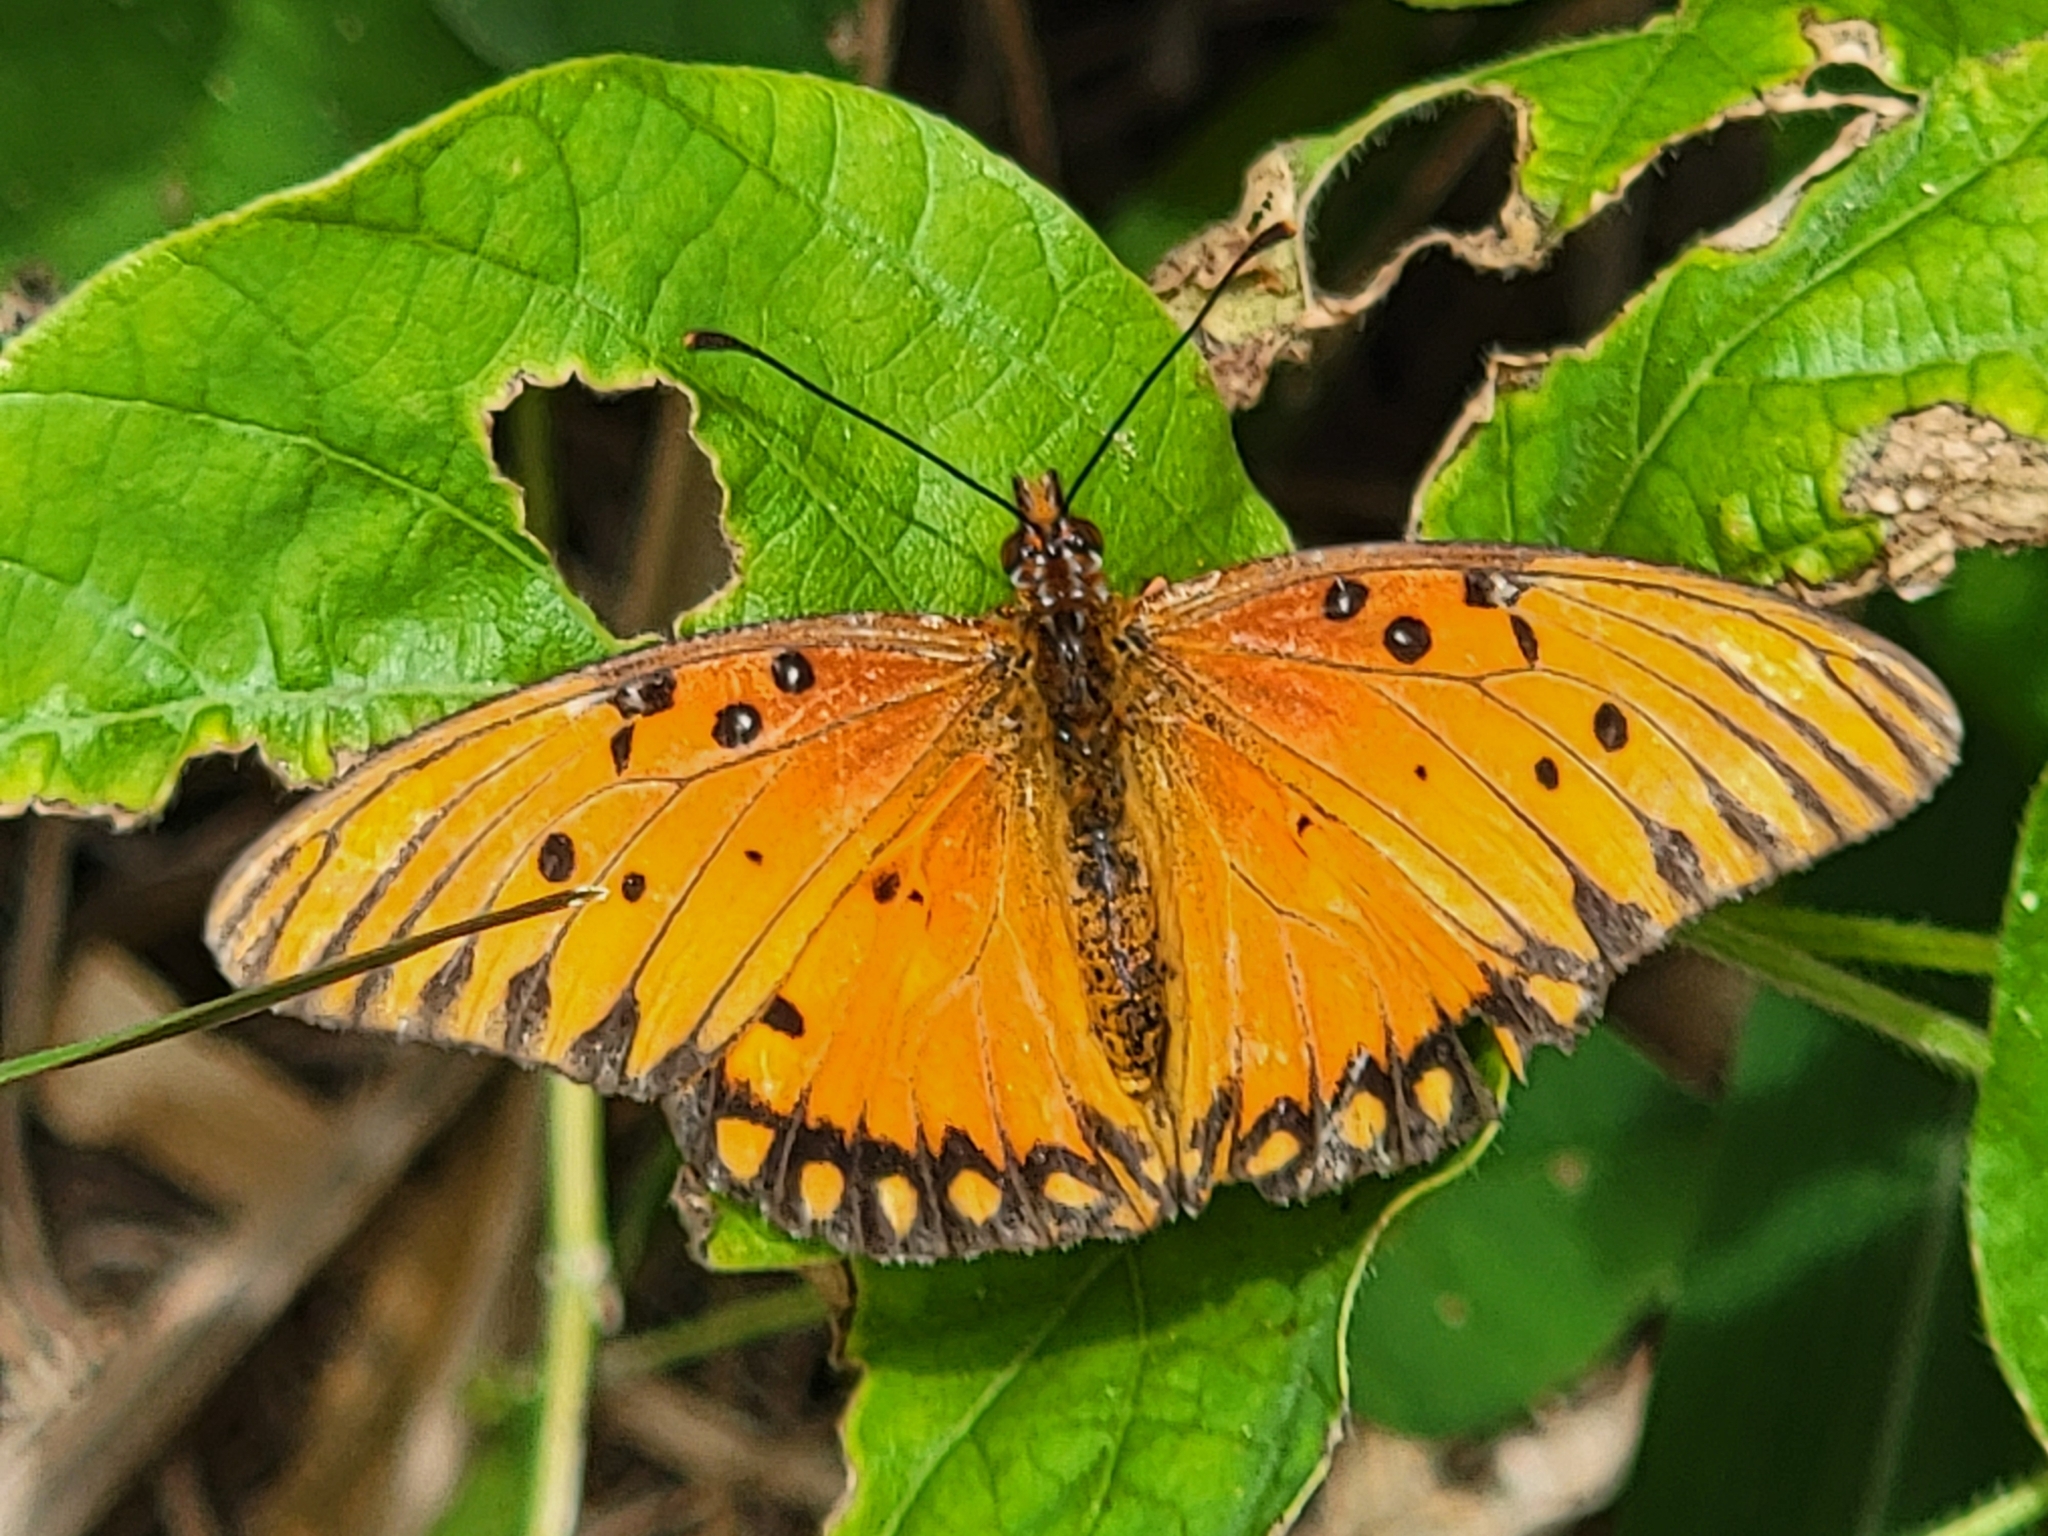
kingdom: Animalia
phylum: Arthropoda
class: Insecta
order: Lepidoptera
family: Nymphalidae
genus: Dione
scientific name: Dione vanillae
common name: Gulf fritillary
